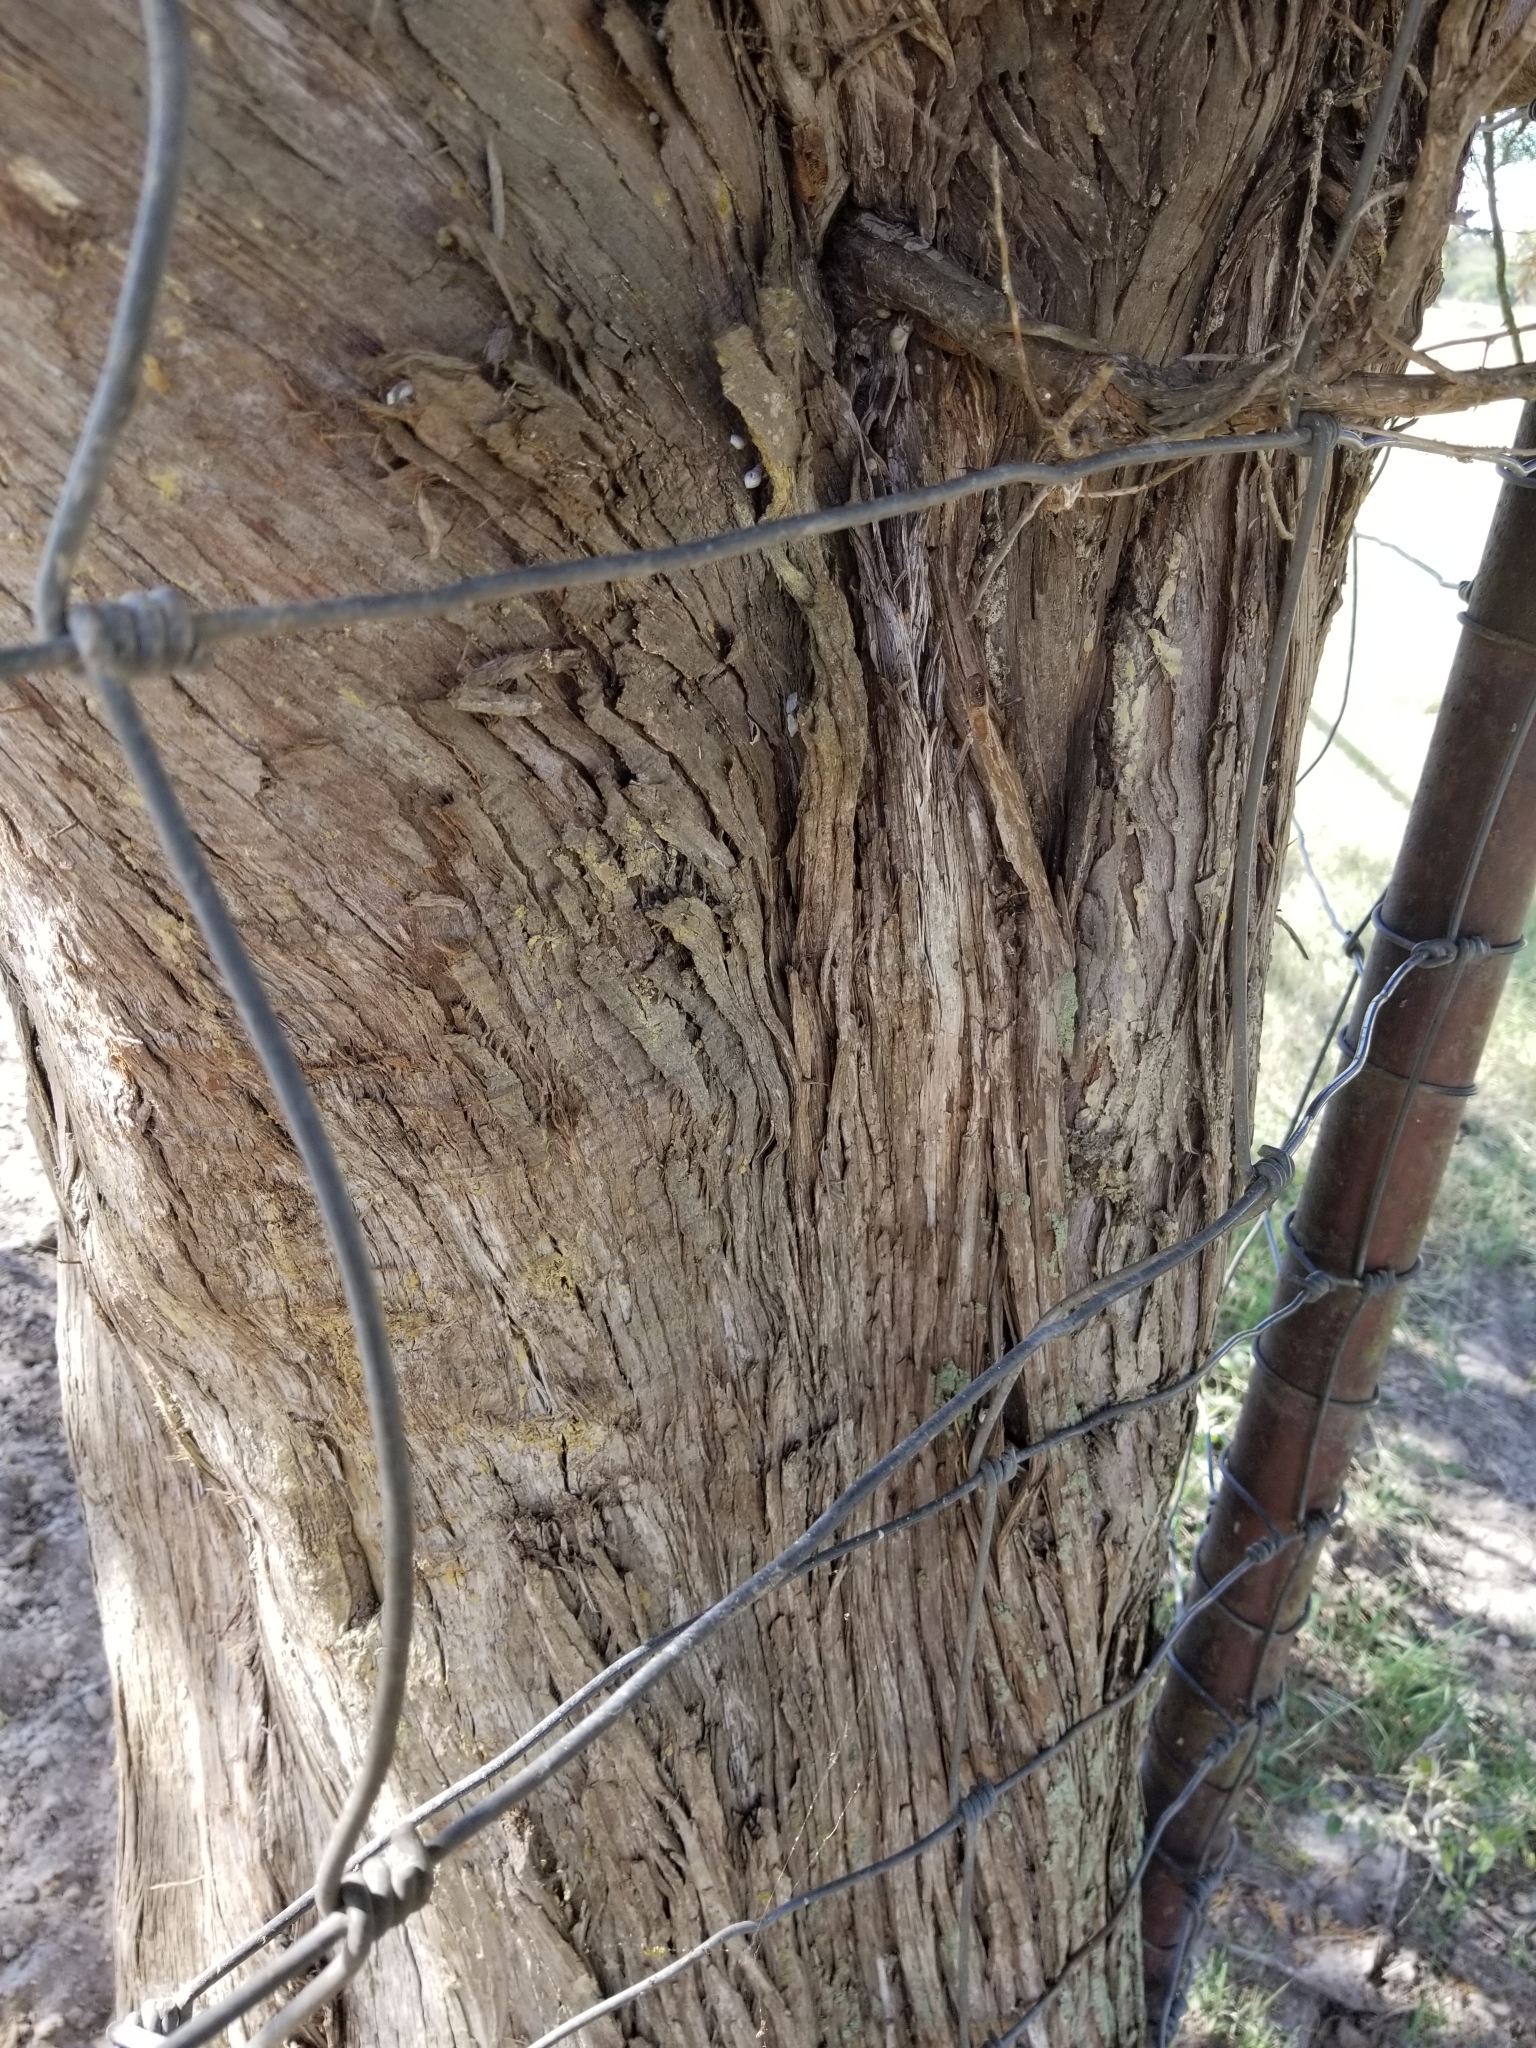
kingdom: Plantae
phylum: Tracheophyta
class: Pinopsida
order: Pinales
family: Cupressaceae
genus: Juniperus
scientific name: Juniperus virginiana
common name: Red juniper
